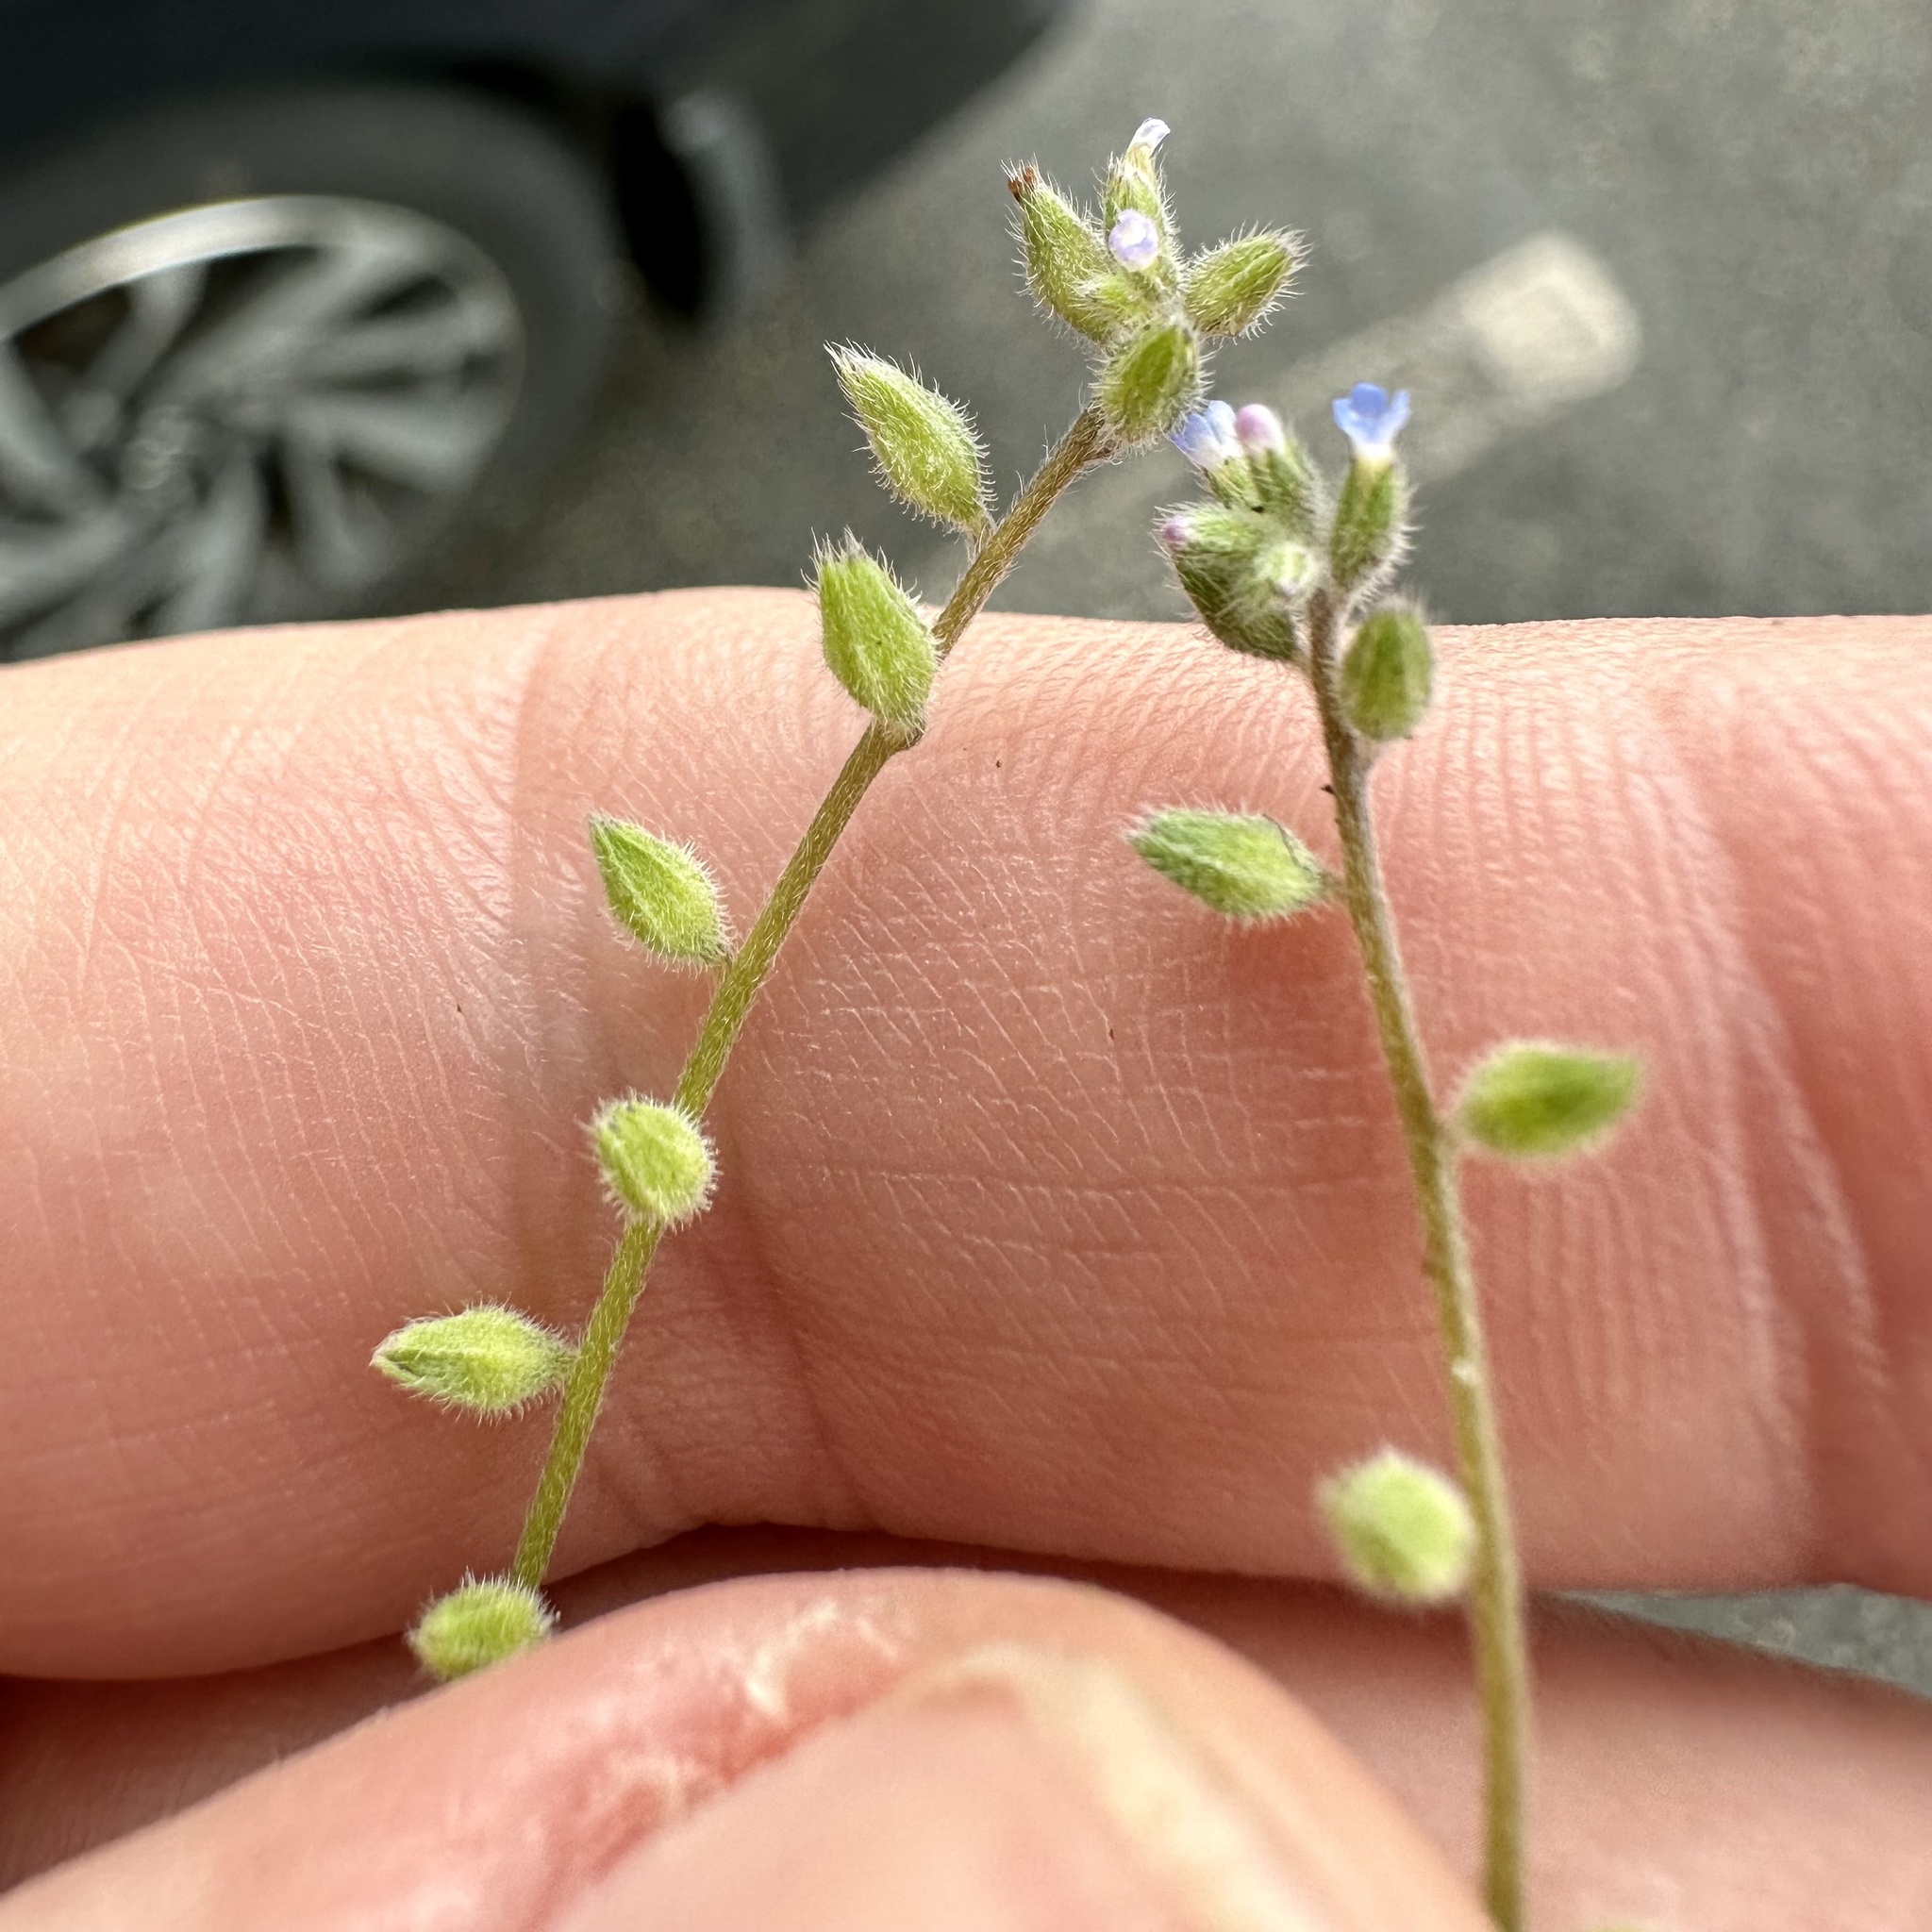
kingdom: Plantae
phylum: Tracheophyta
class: Magnoliopsida
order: Boraginales
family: Boraginaceae
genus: Myosotis
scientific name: Myosotis stricta
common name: Strict forget-me-not
